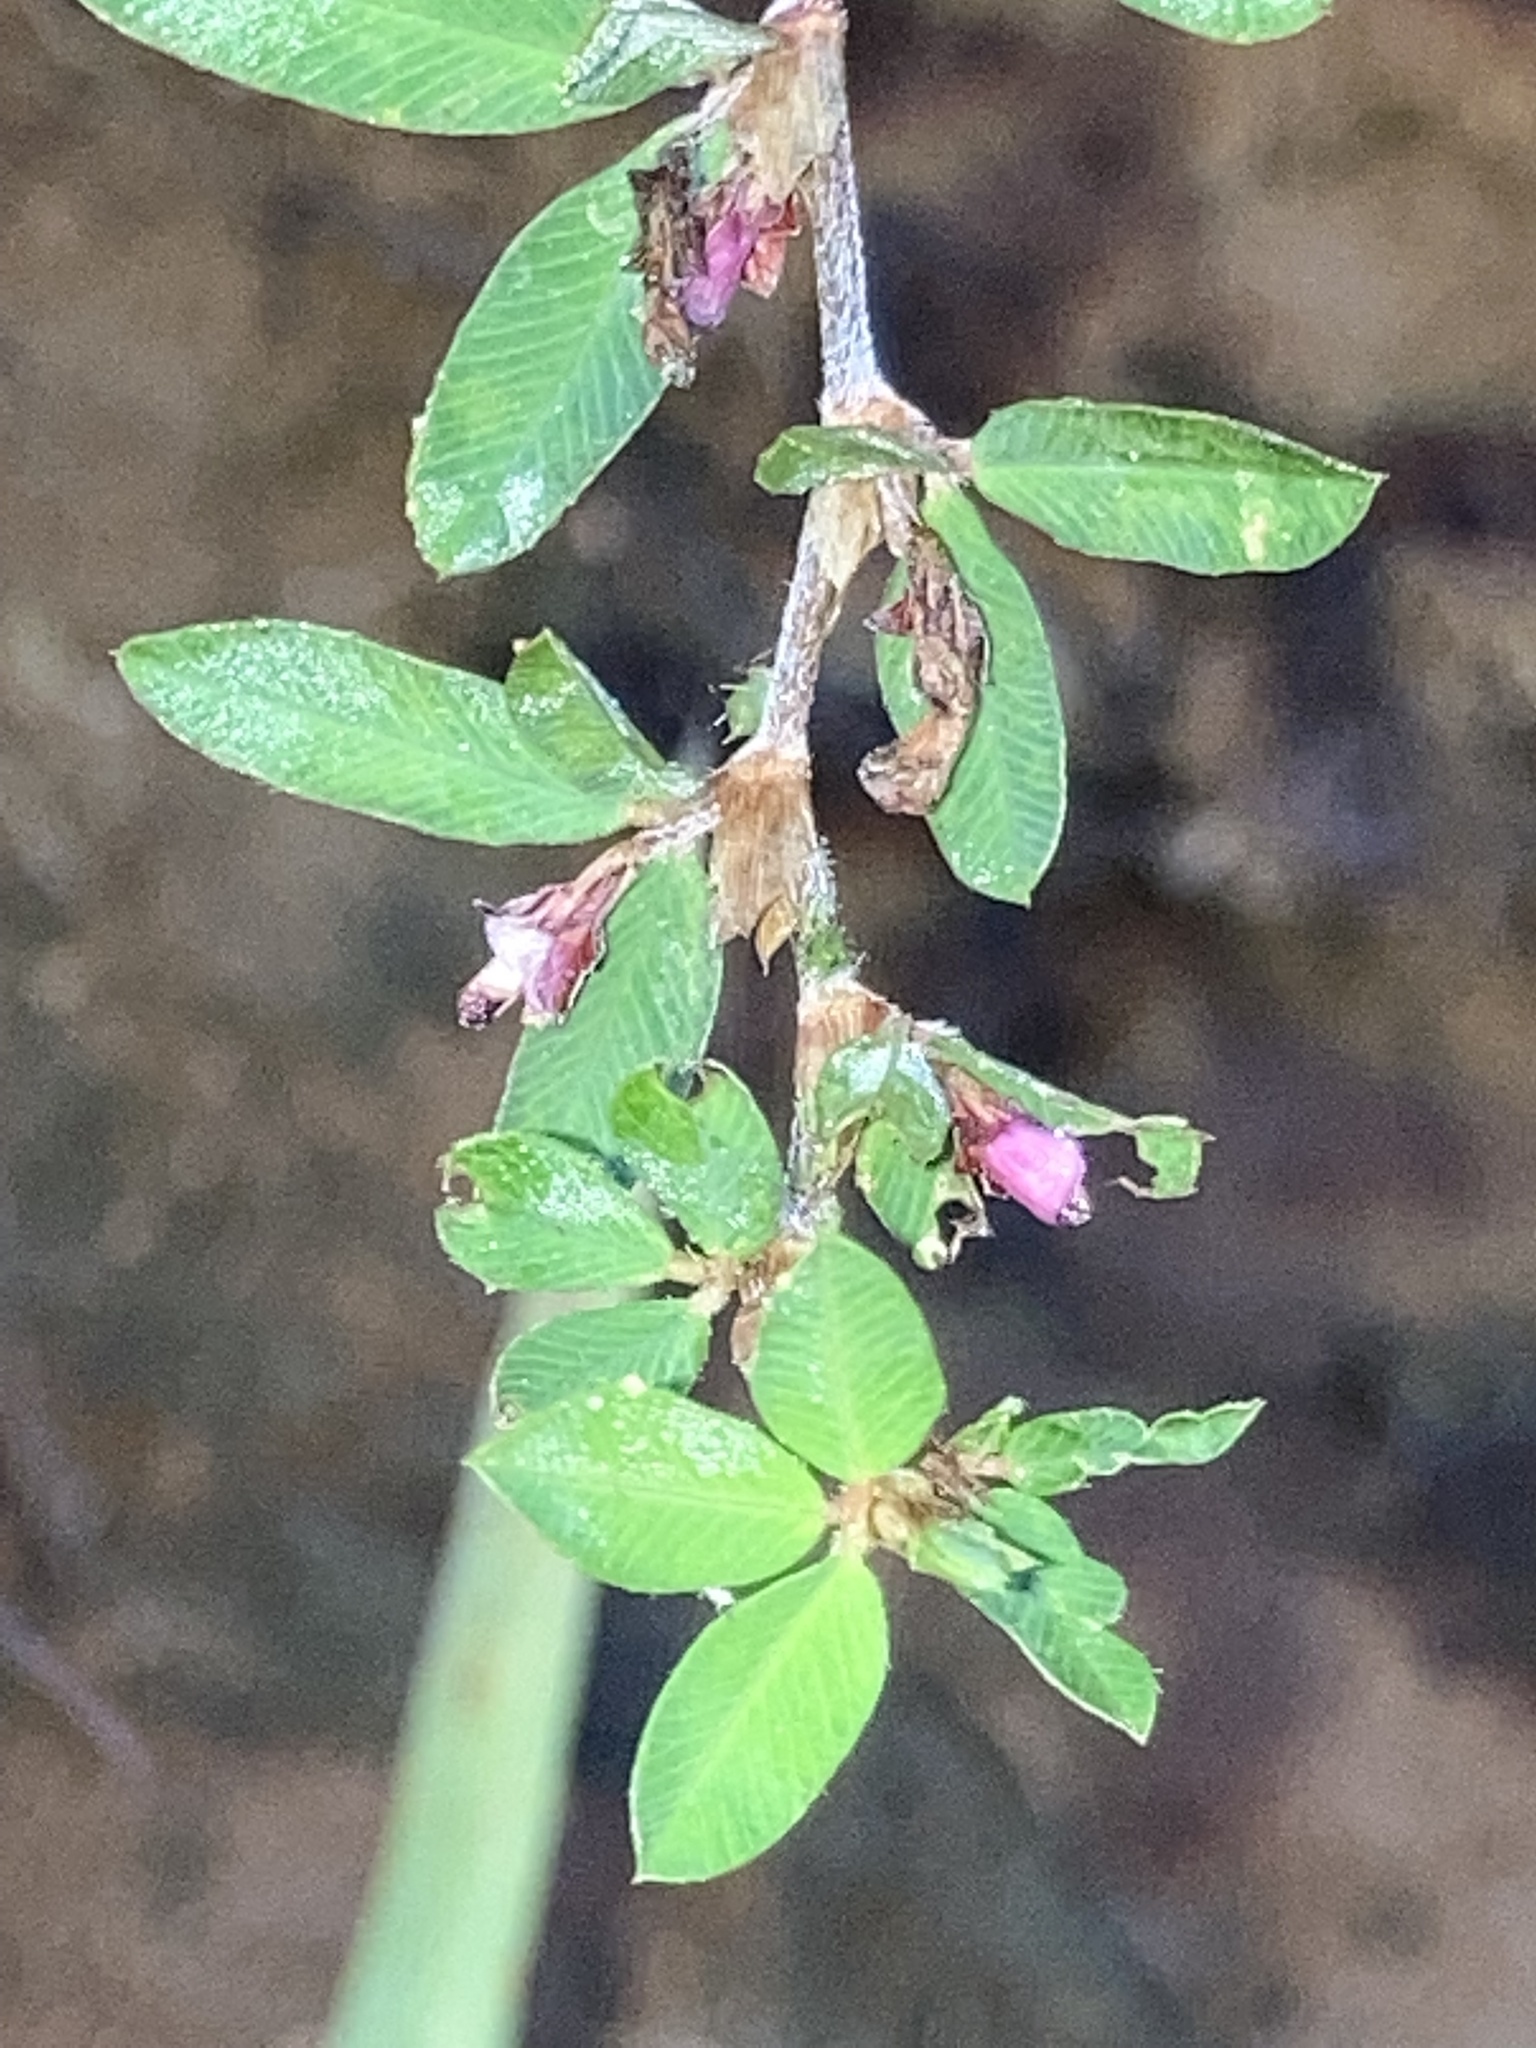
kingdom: Plantae
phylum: Tracheophyta
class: Magnoliopsida
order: Fabales
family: Fabaceae
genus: Kummerowia
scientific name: Kummerowia striata
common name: Japanese clover
